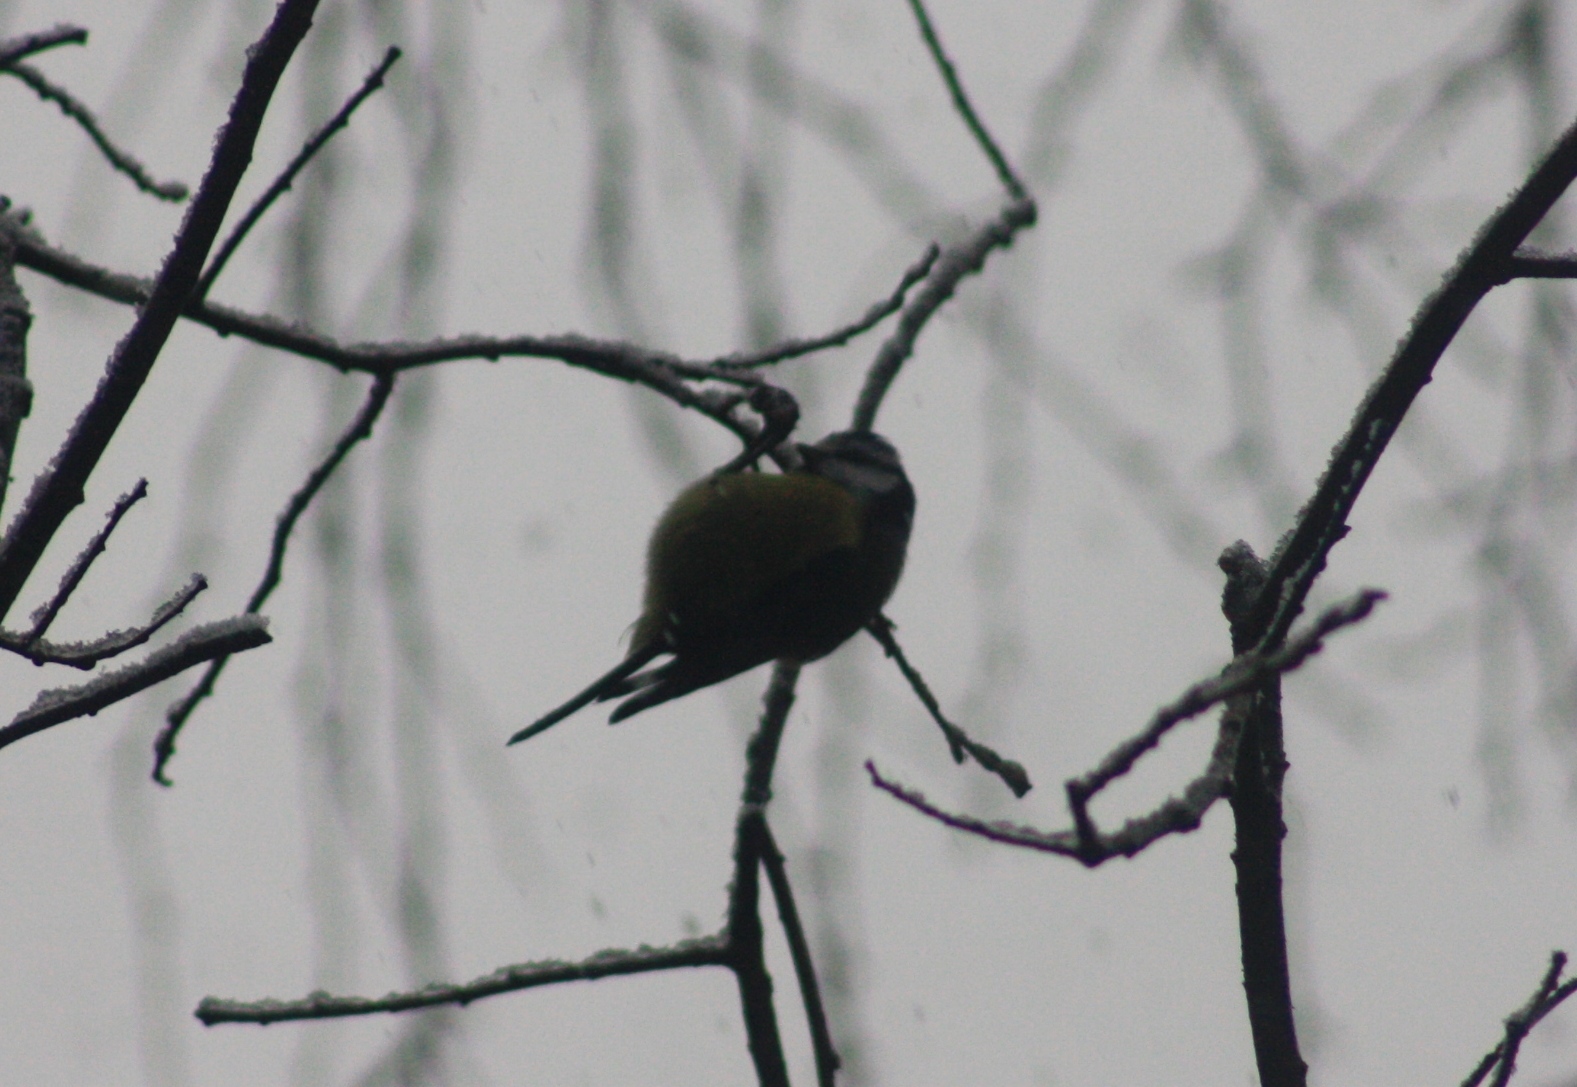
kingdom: Animalia
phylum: Chordata
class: Aves
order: Passeriformes
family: Paridae
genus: Cyanistes
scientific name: Cyanistes caeruleus
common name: Eurasian blue tit
